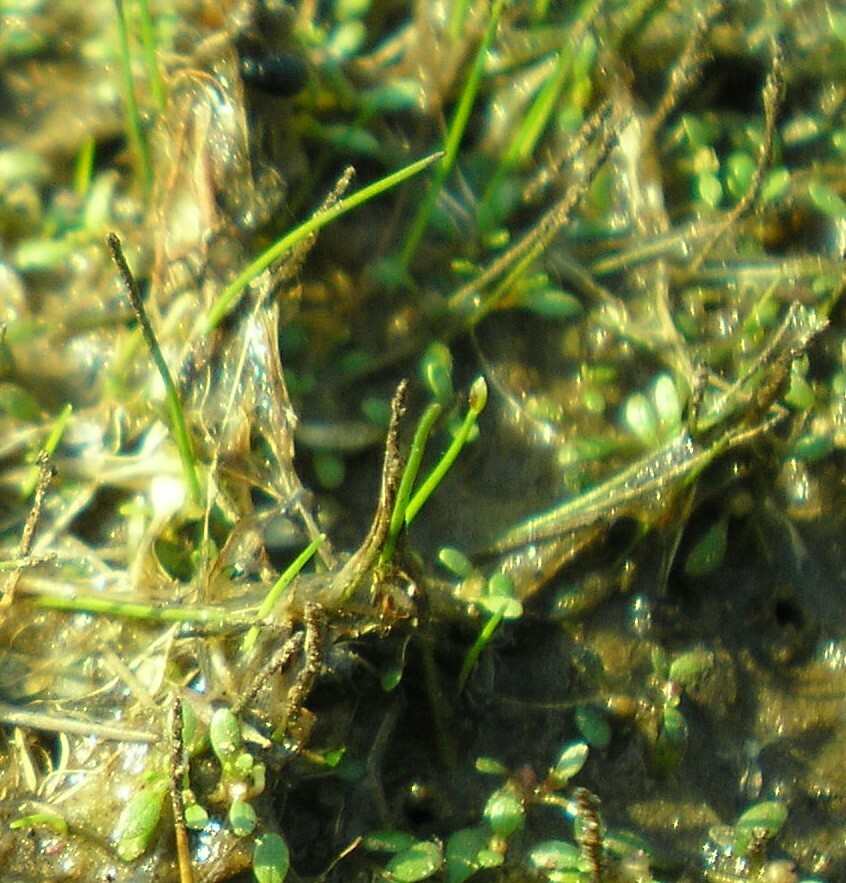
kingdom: Plantae
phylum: Tracheophyta
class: Liliopsida
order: Poales
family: Cyperaceae
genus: Eleocharis
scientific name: Eleocharis acicularis
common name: Needle spike-rush
